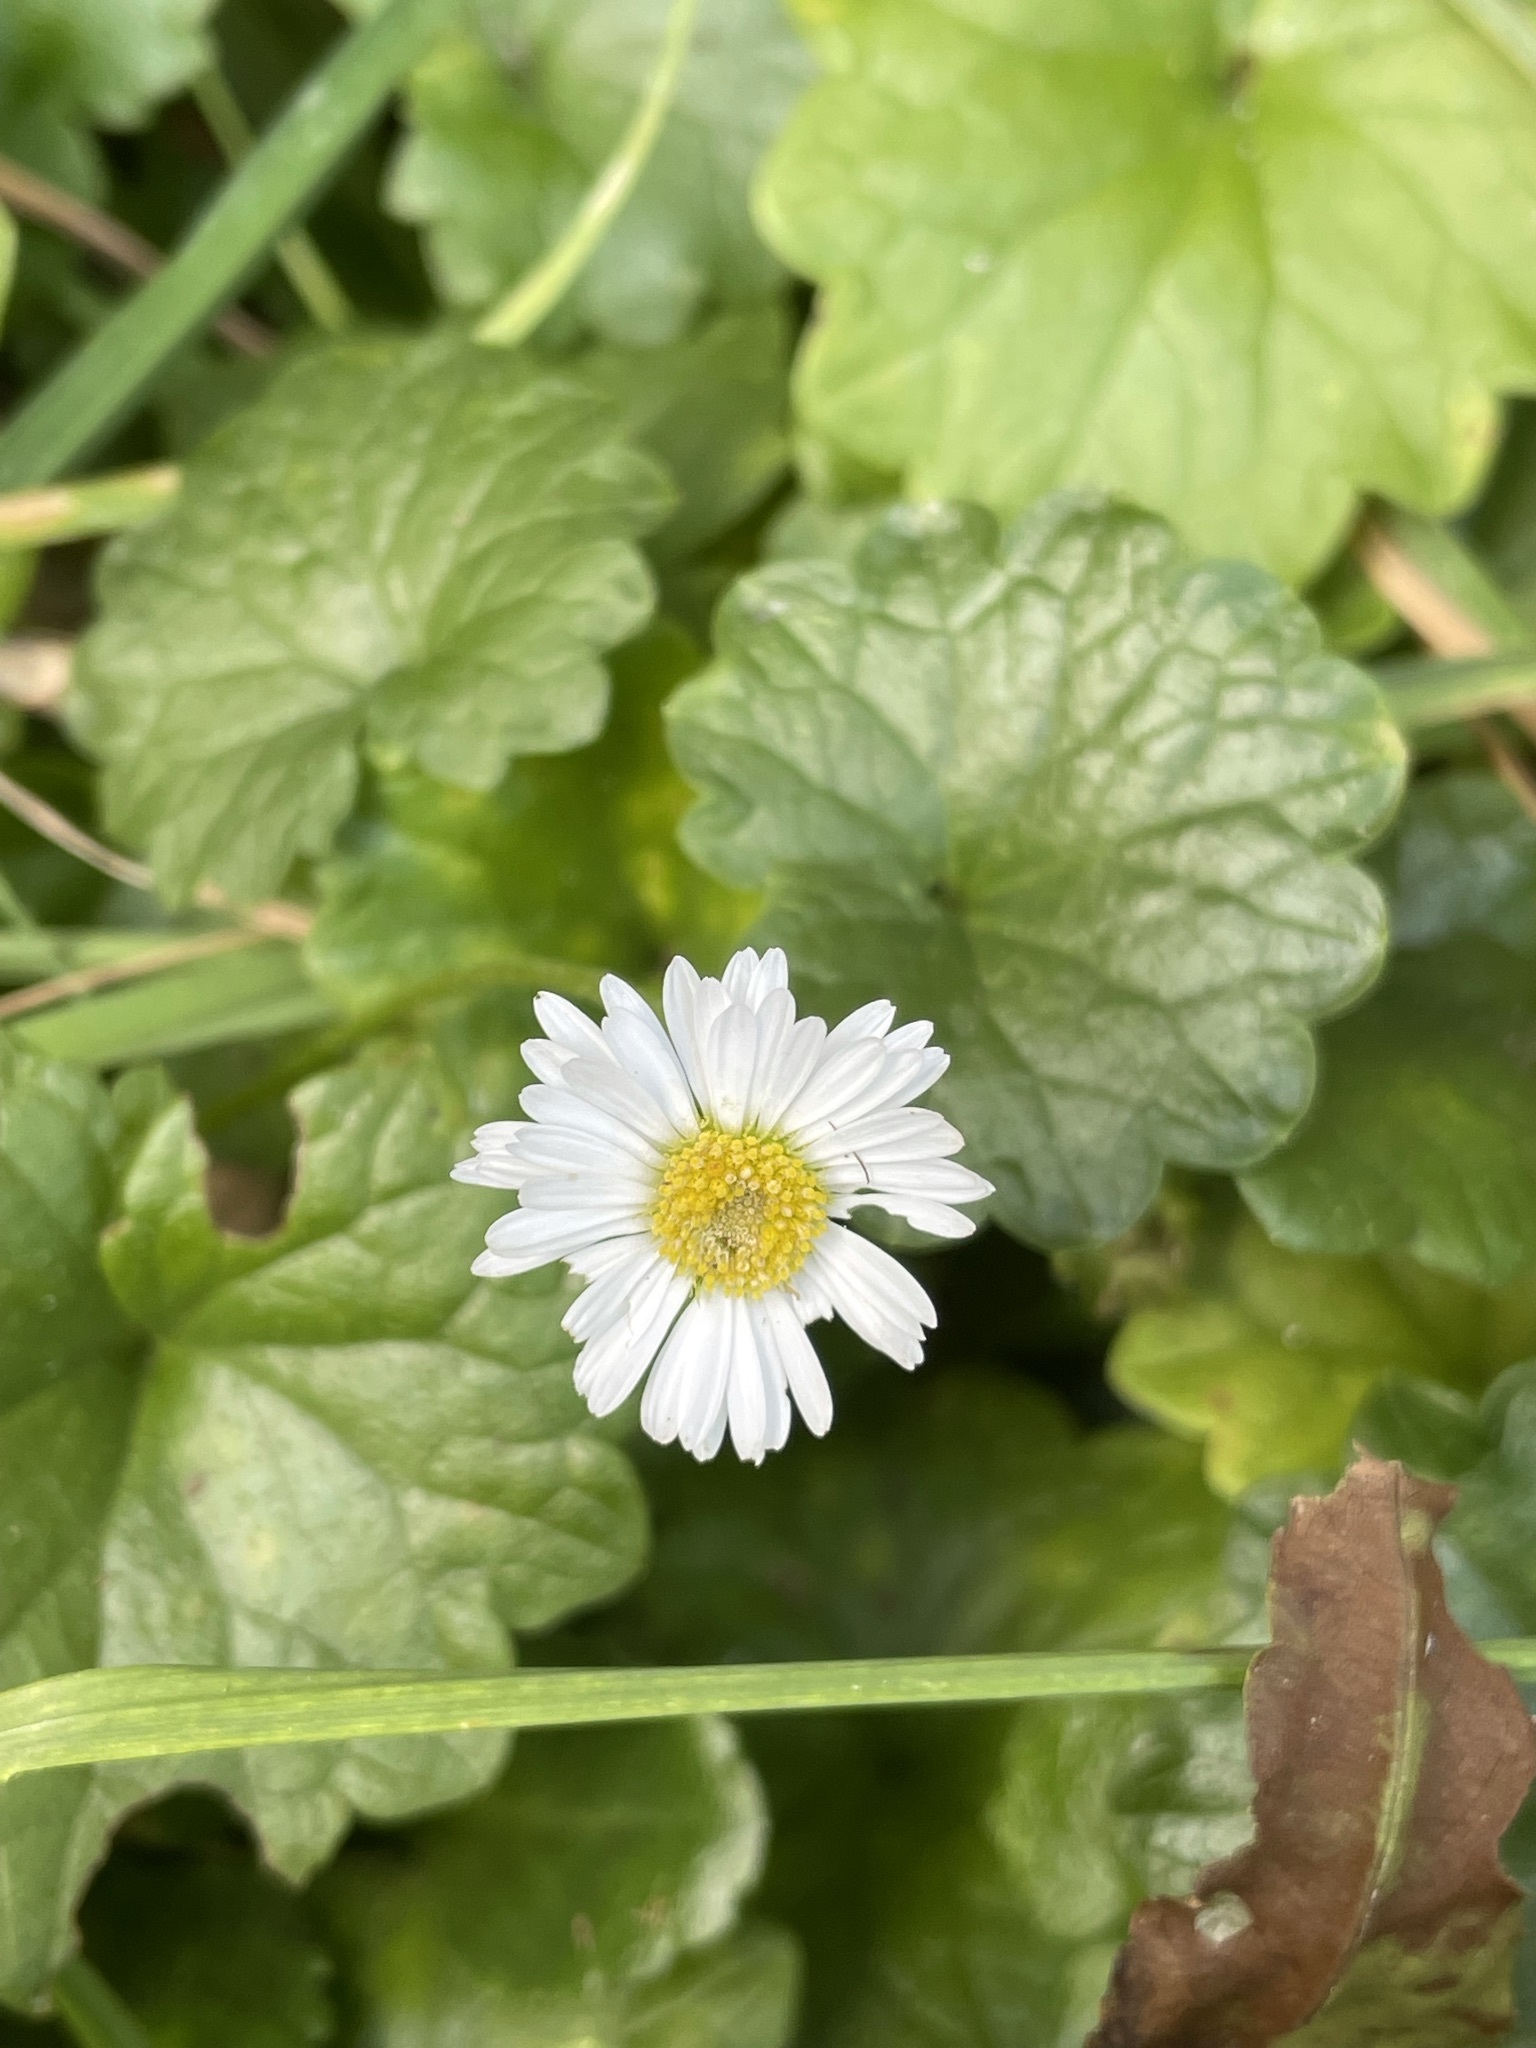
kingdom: Plantae
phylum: Tracheophyta
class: Magnoliopsida
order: Asterales
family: Asteraceae
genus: Bellis
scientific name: Bellis perennis
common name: Lawndaisy
